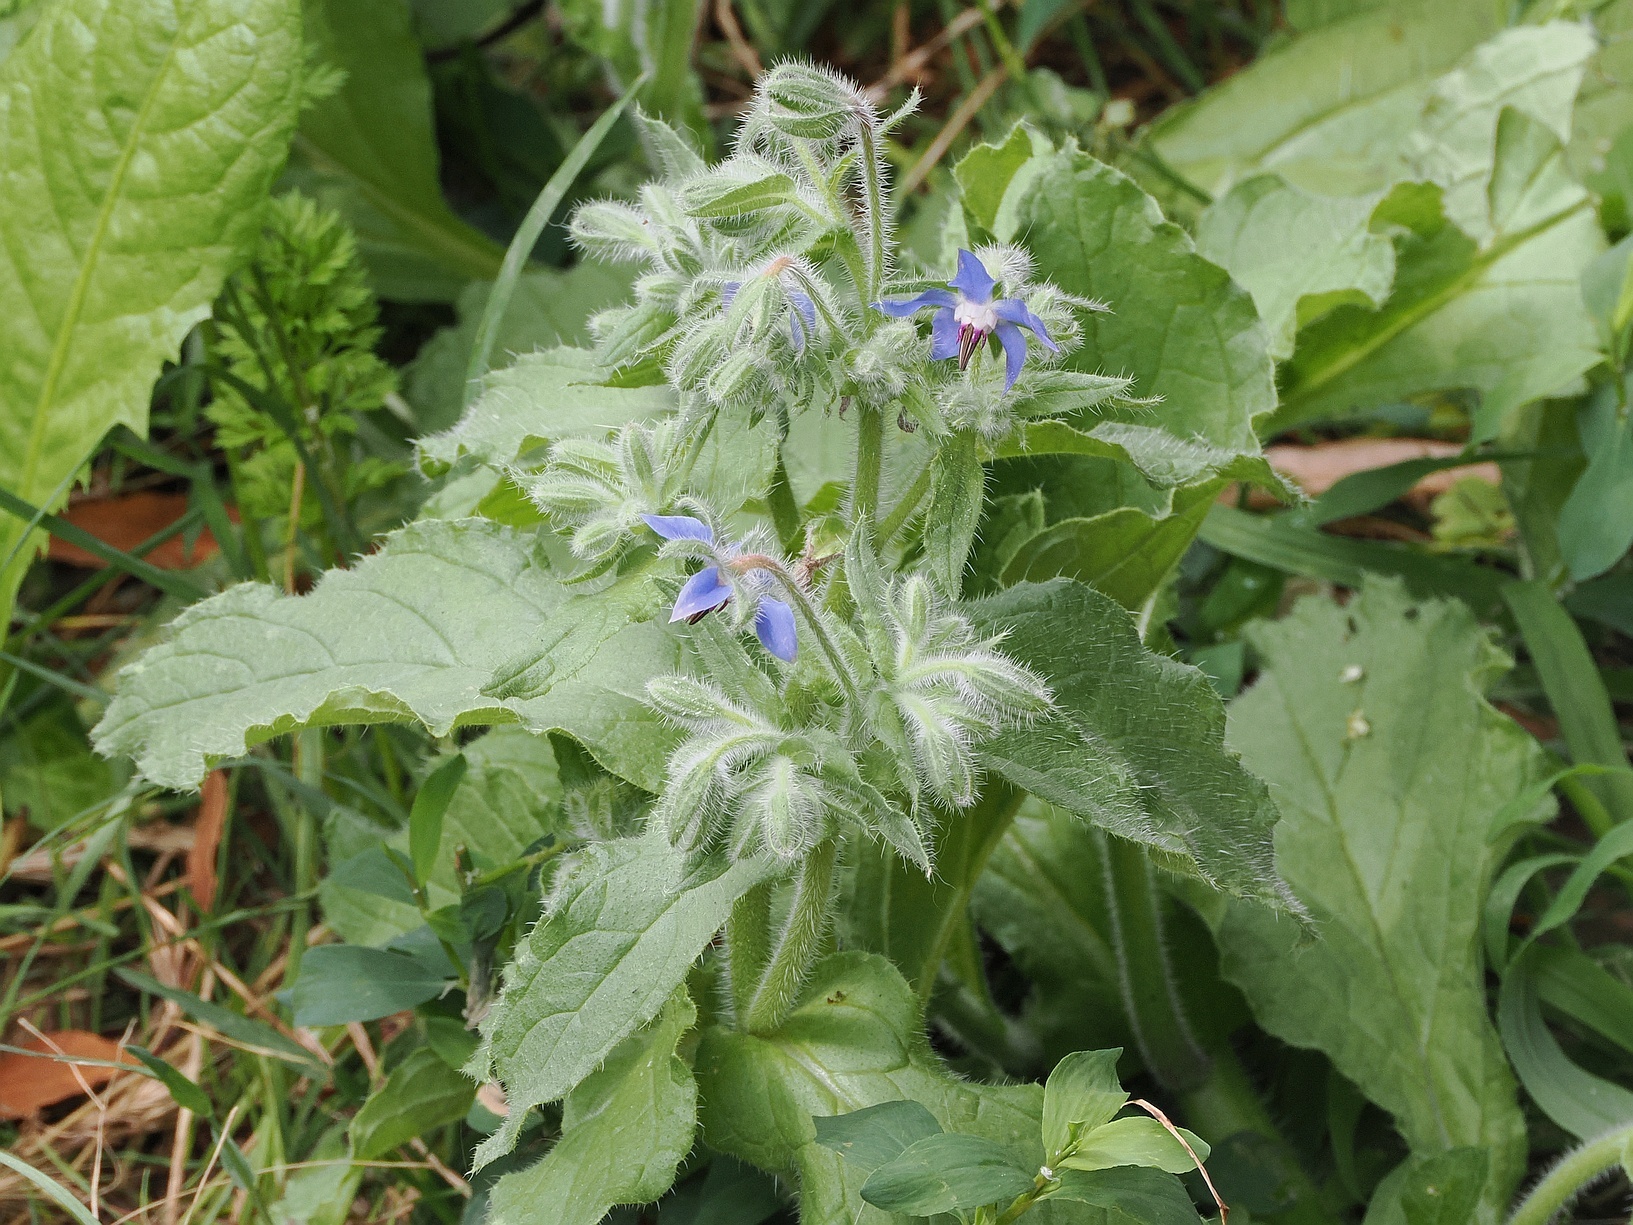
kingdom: Plantae
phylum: Tracheophyta
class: Magnoliopsida
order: Boraginales
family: Boraginaceae
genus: Borago
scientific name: Borago officinalis
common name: Borage
